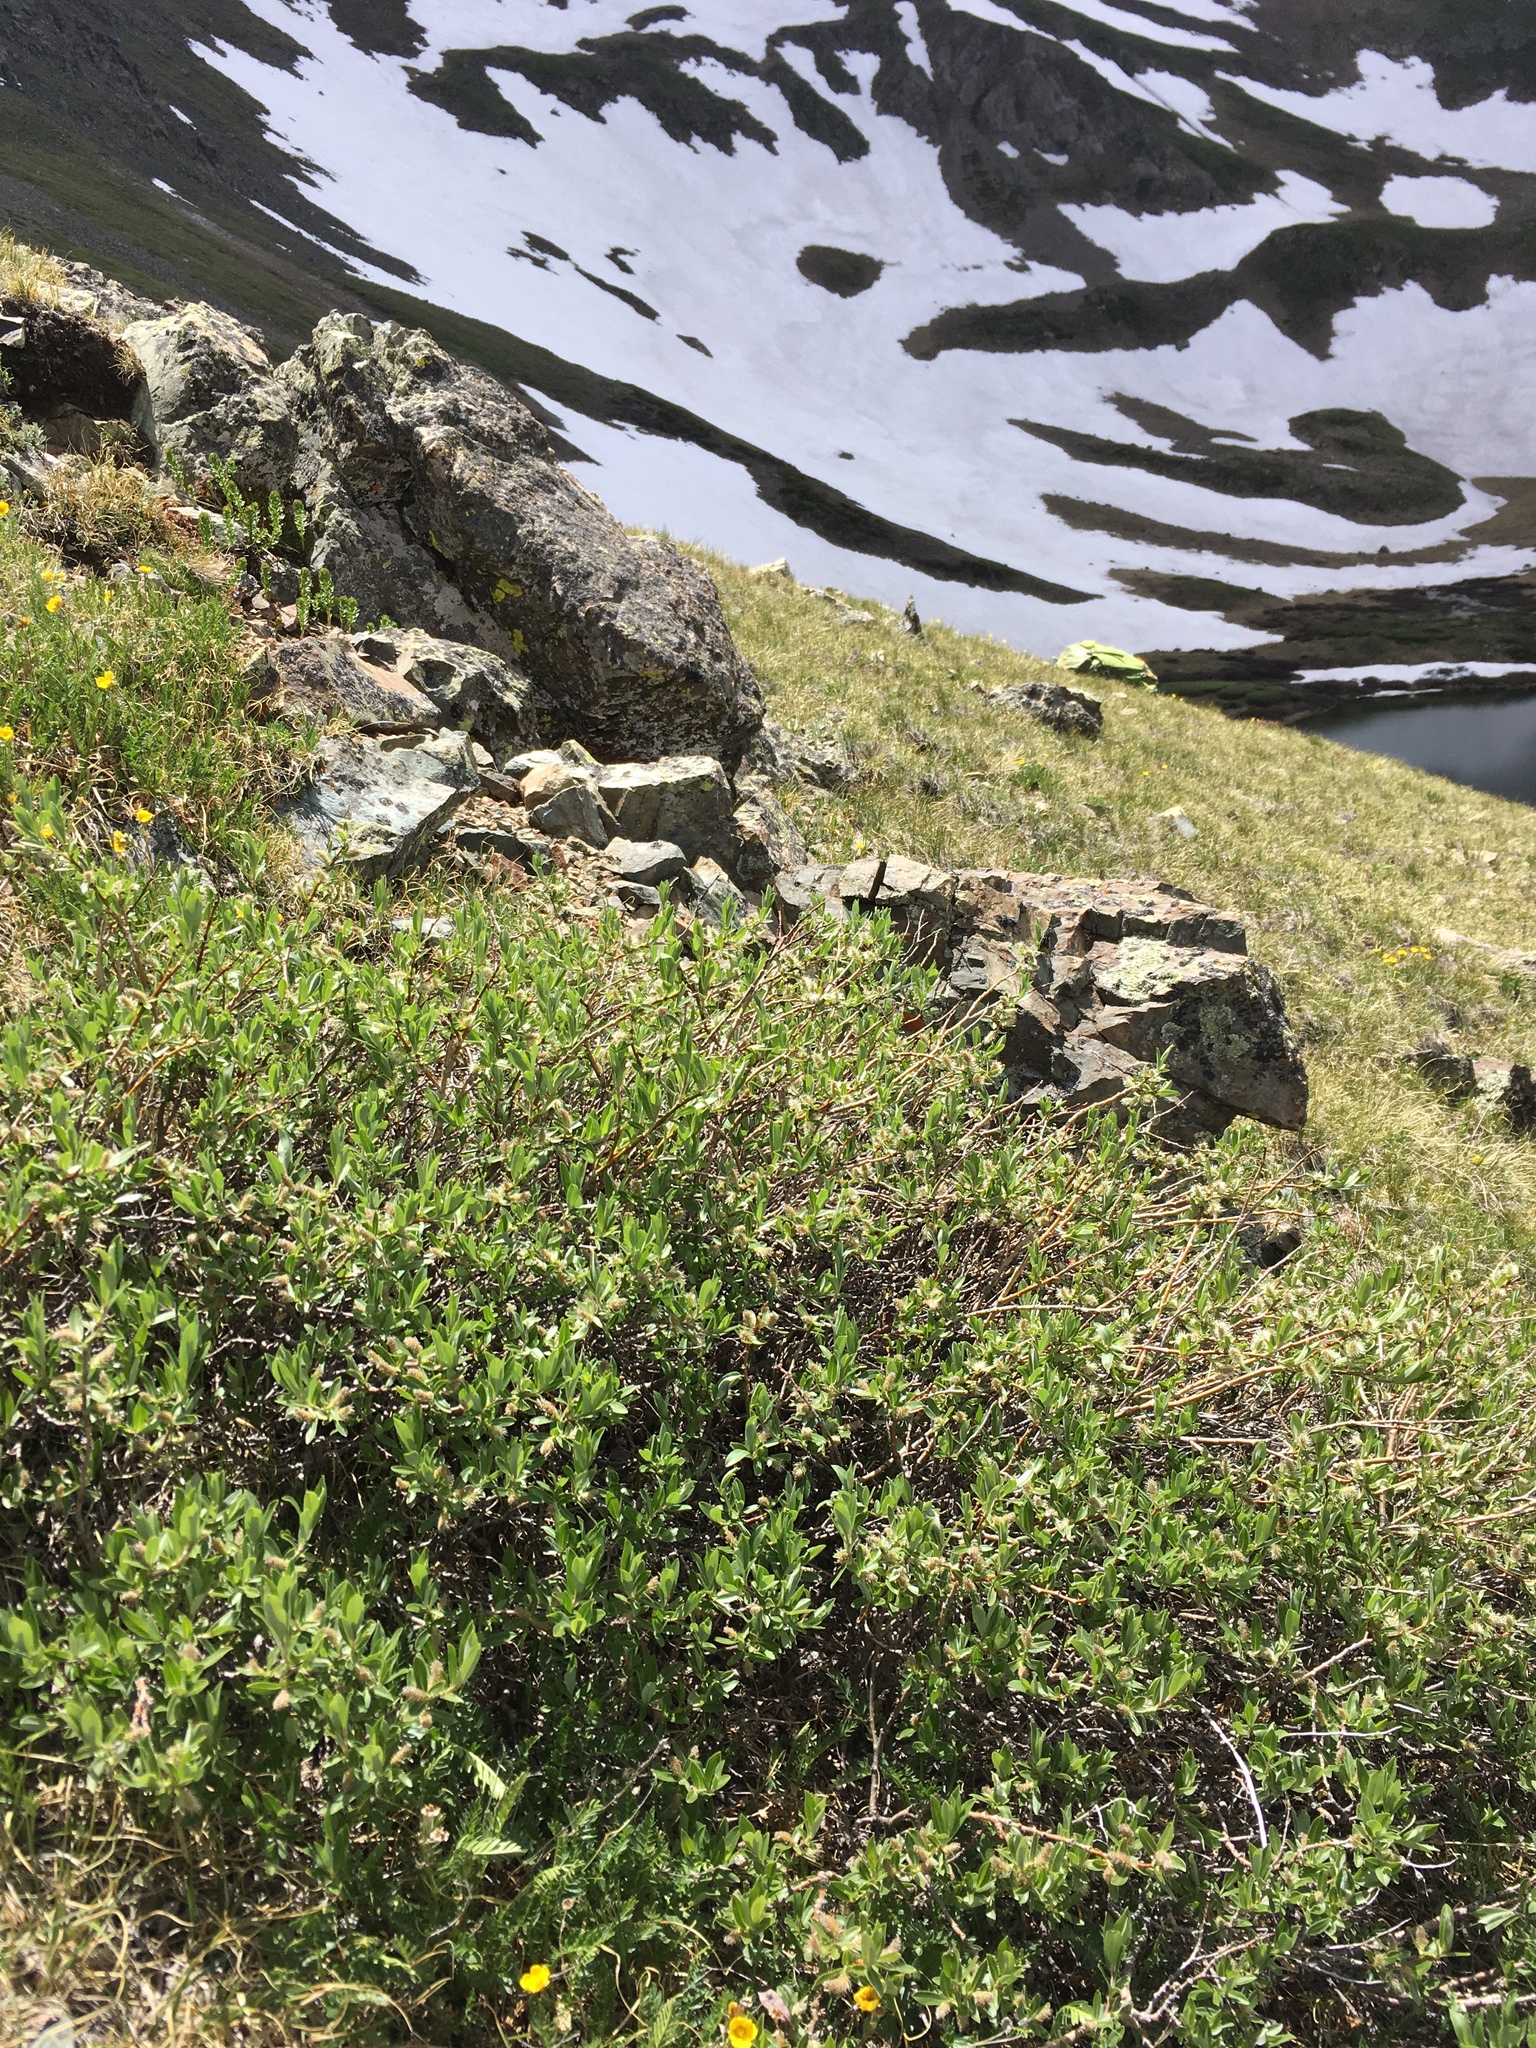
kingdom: Plantae
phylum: Tracheophyta
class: Magnoliopsida
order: Malpighiales
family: Salicaceae
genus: Salix
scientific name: Salix wolfii
